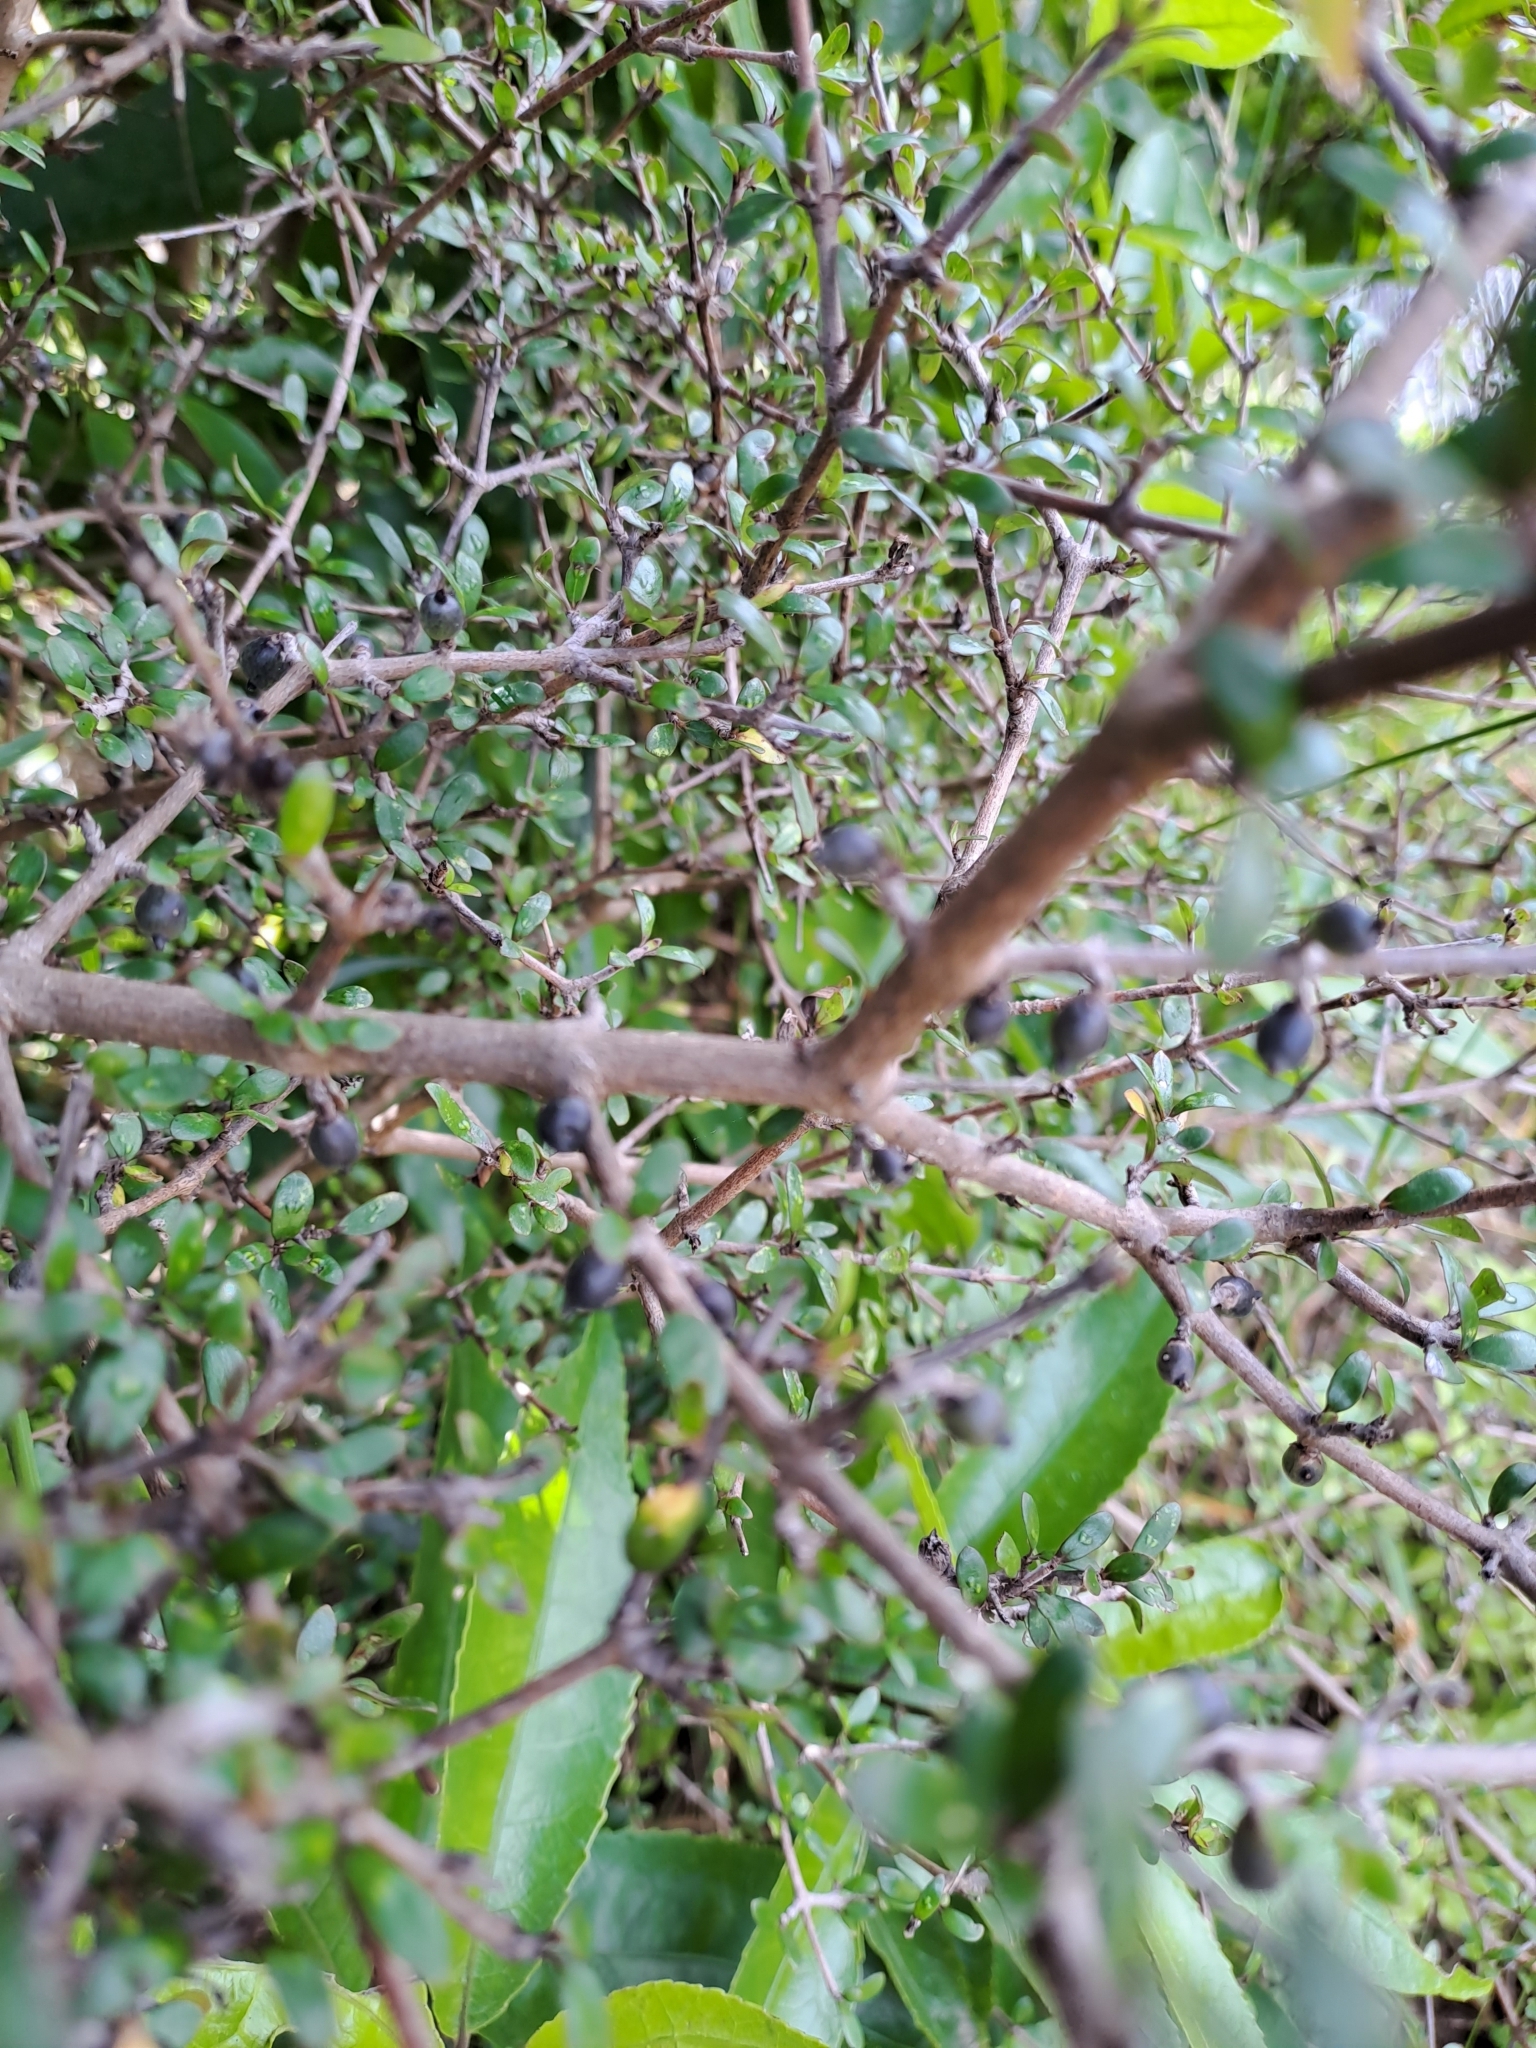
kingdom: Plantae
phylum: Tracheophyta
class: Magnoliopsida
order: Gentianales
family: Rubiaceae
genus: Coprosma
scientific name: Coprosma propinqua
